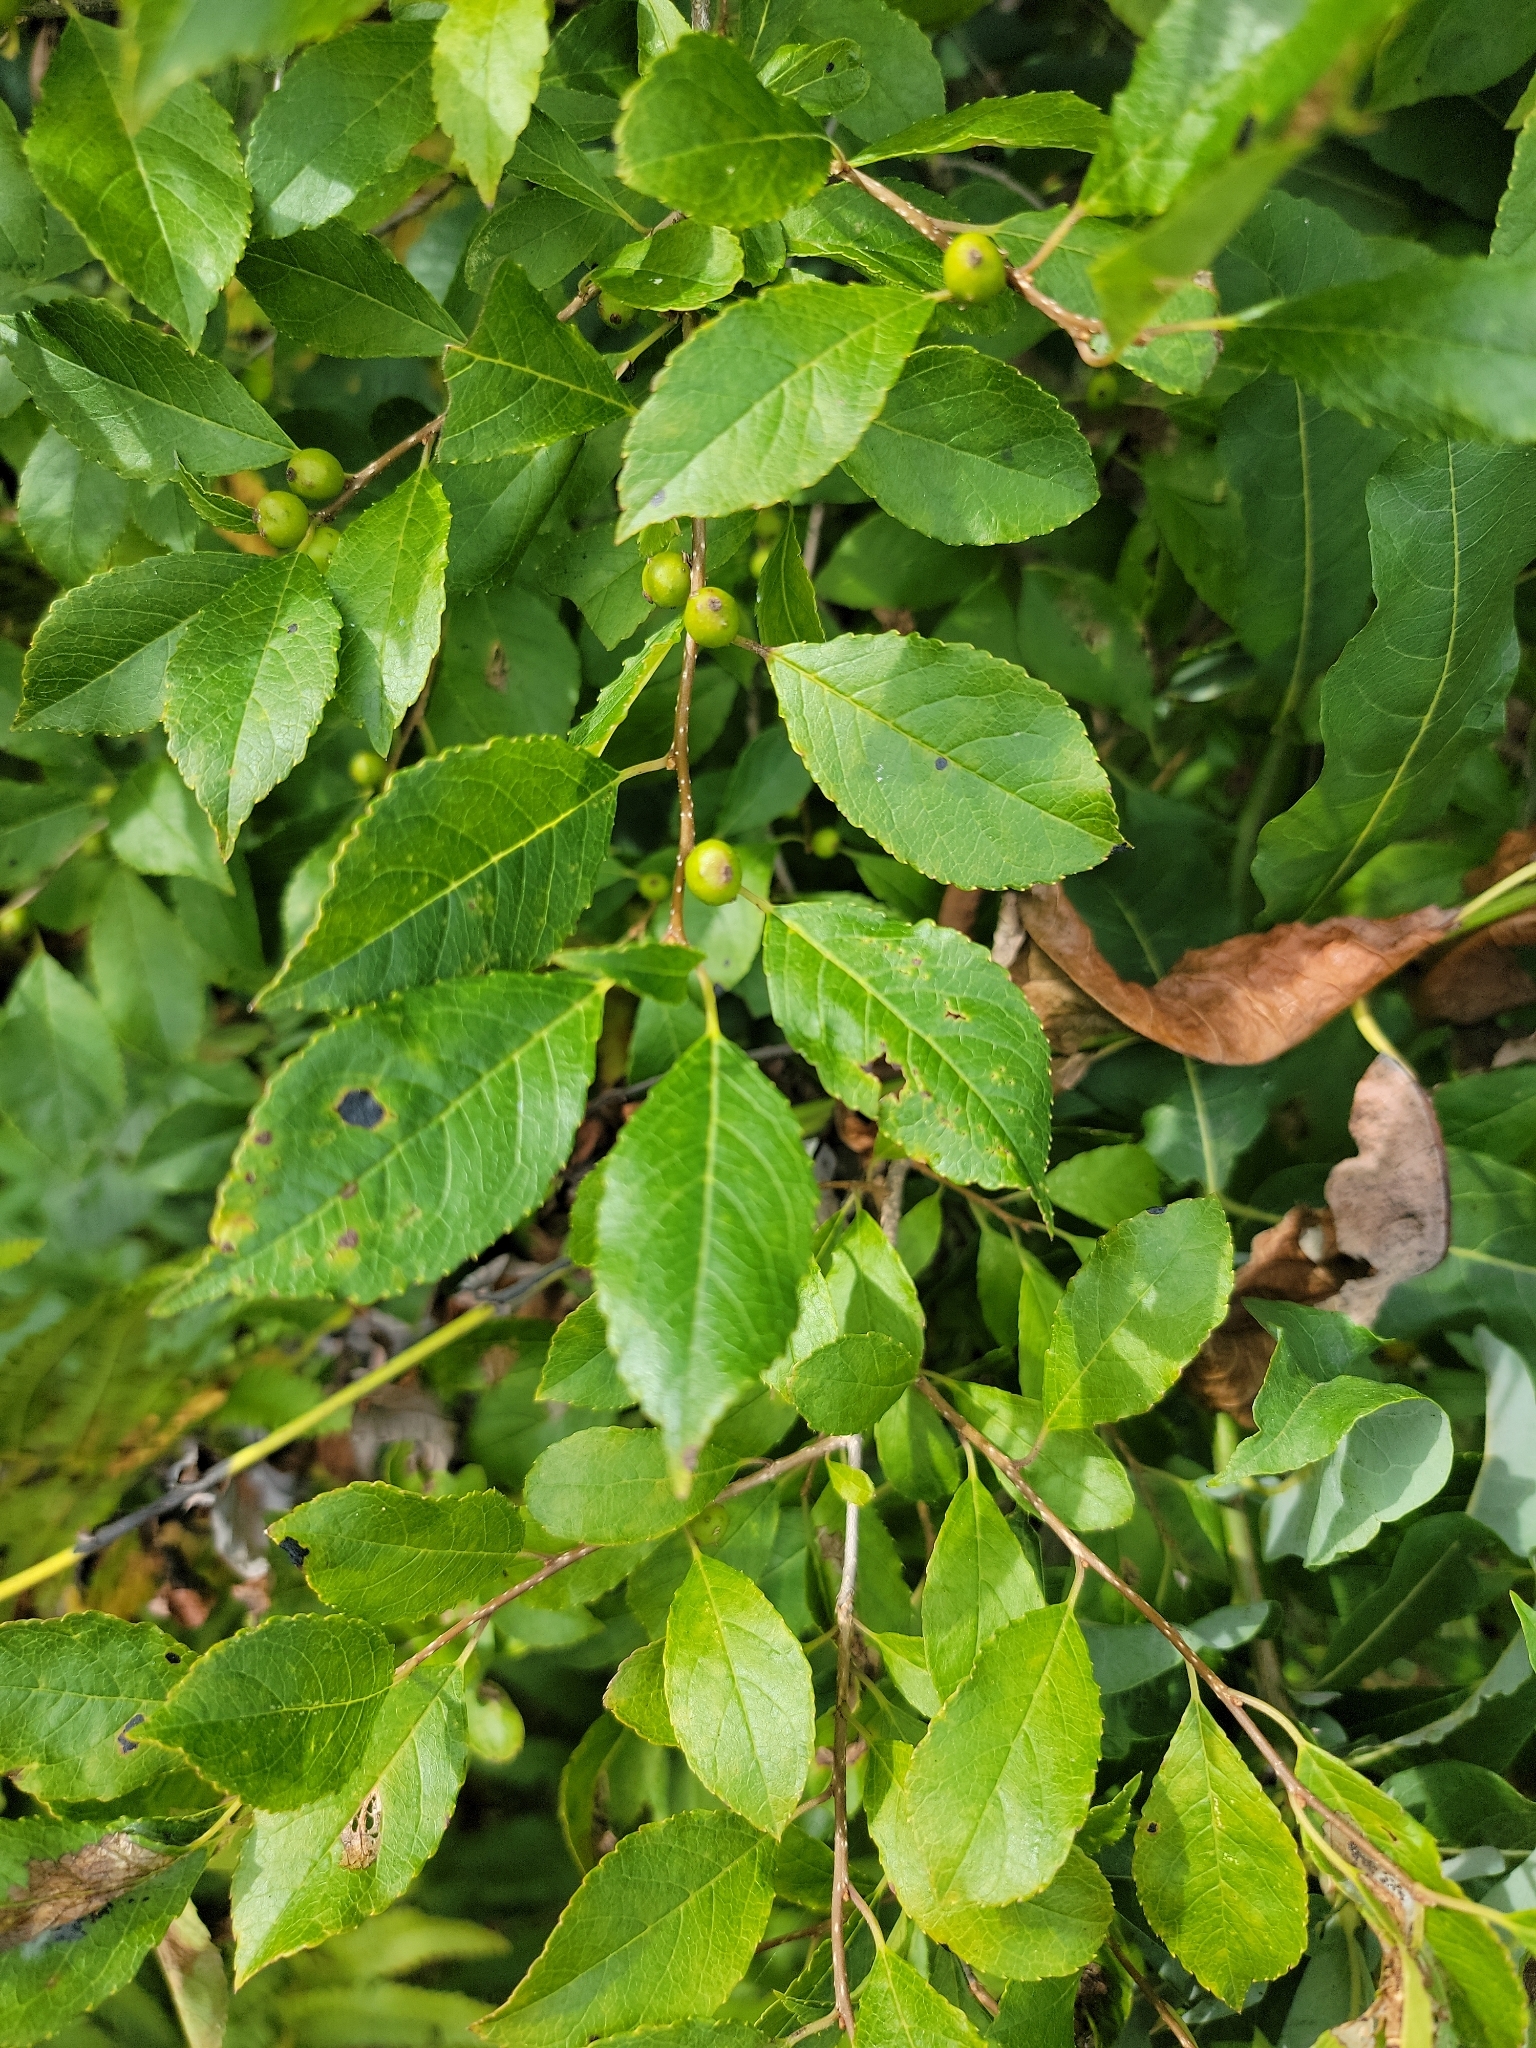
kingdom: Plantae
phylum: Tracheophyta
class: Magnoliopsida
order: Aquifoliales
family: Aquifoliaceae
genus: Ilex
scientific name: Ilex verticillata
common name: Virginia winterberry
